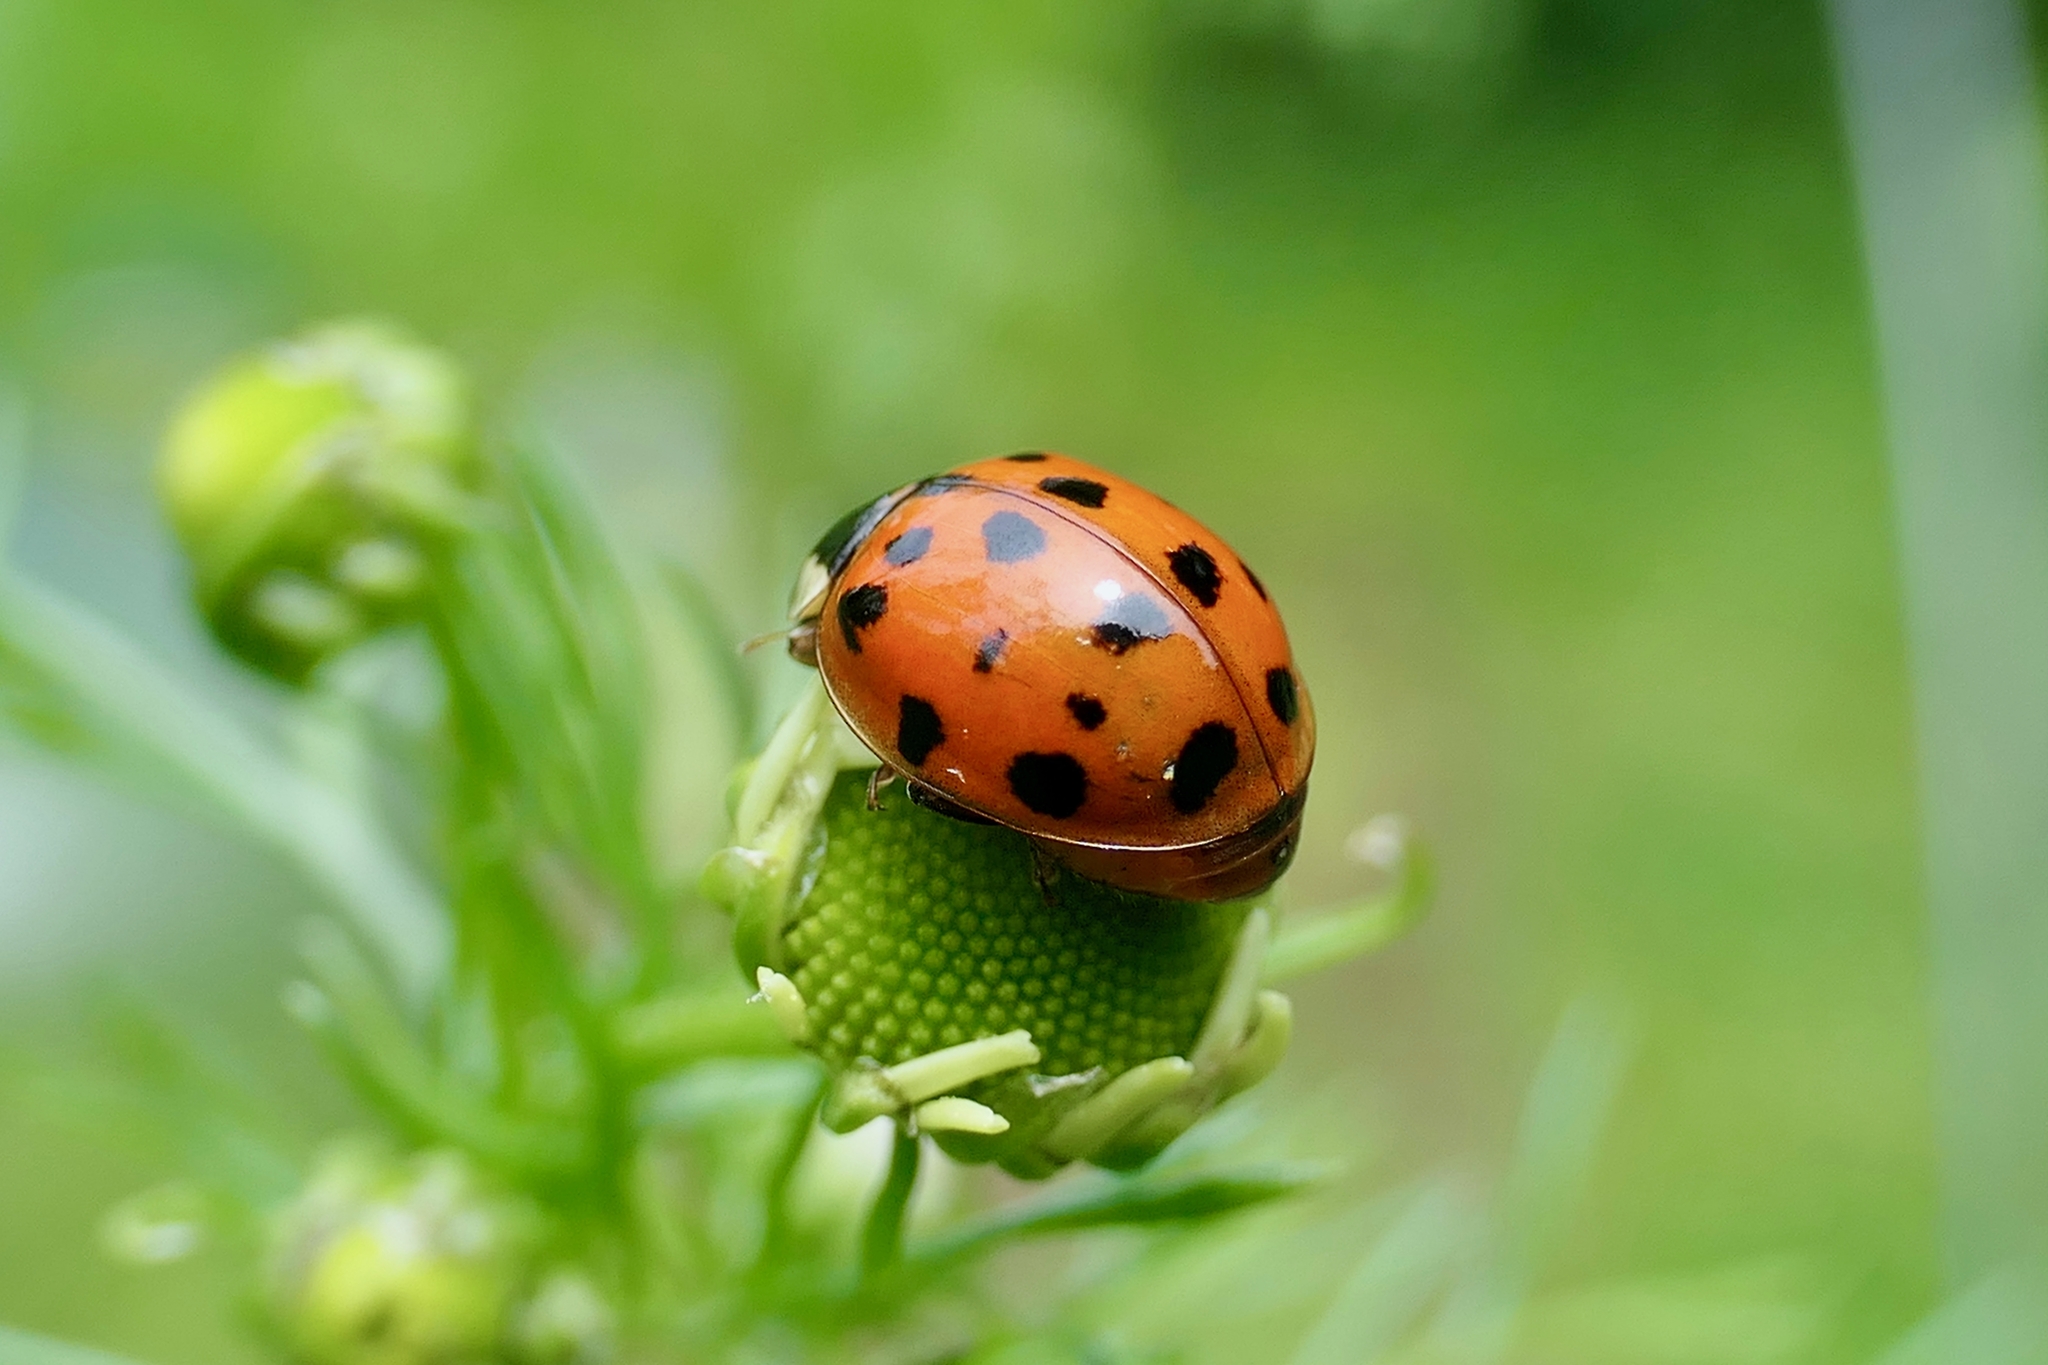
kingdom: Animalia
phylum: Arthropoda
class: Insecta
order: Coleoptera
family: Coccinellidae
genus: Harmonia
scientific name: Harmonia axyridis
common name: Harlequin ladybird
